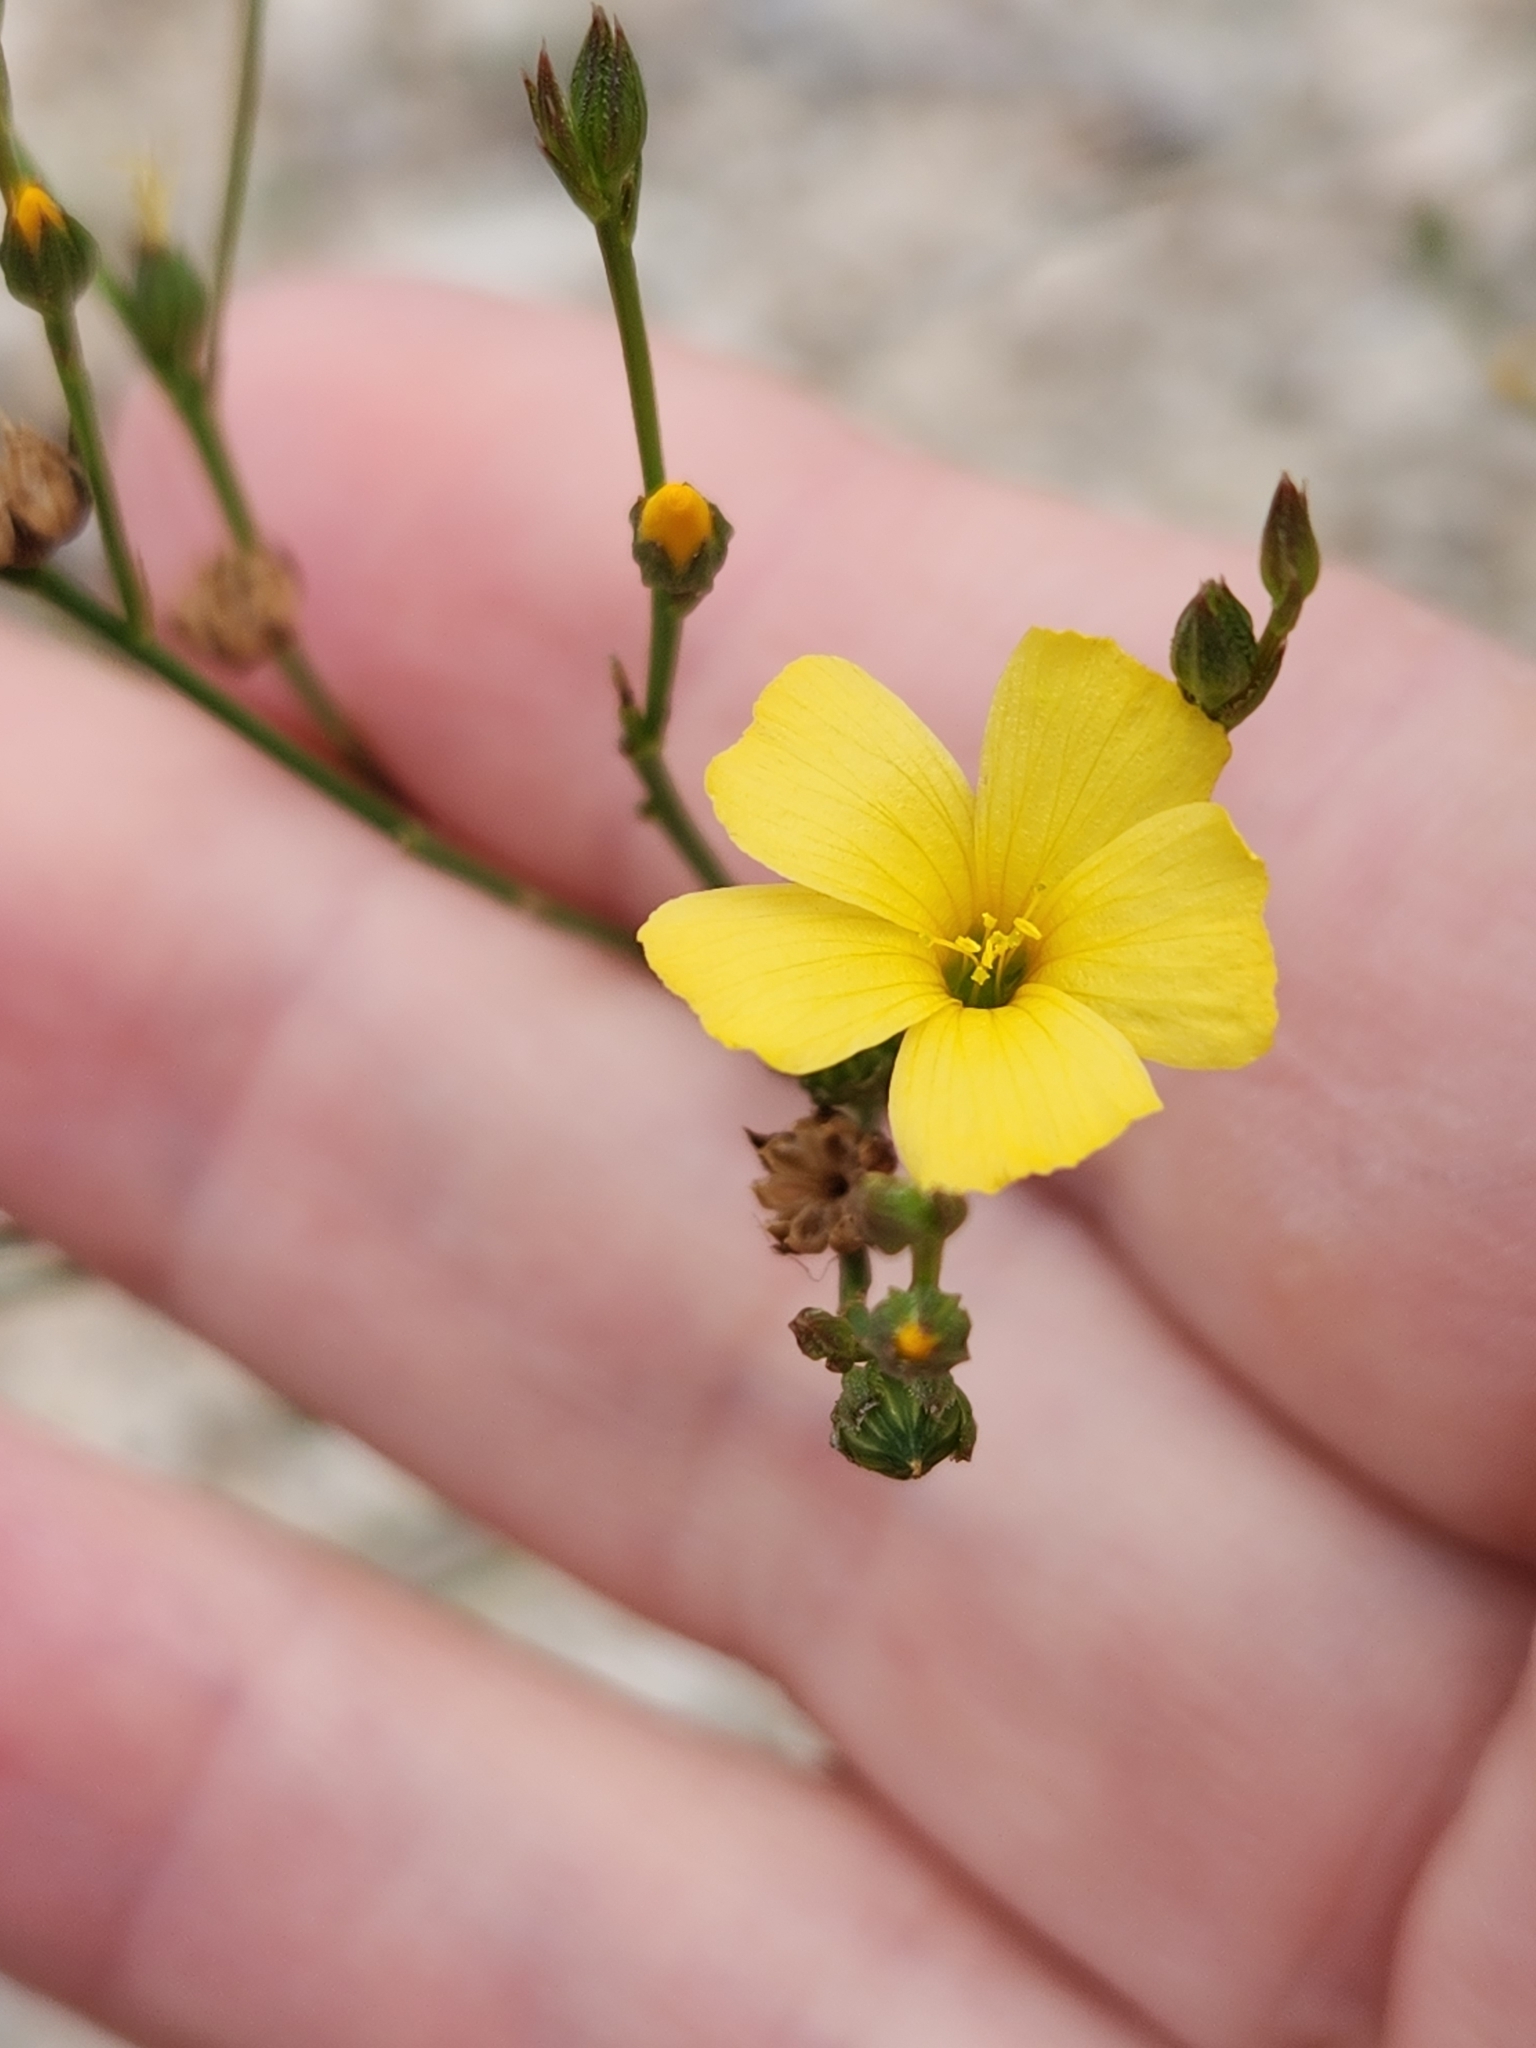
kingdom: Plantae
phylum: Tracheophyta
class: Magnoliopsida
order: Malpighiales
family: Linaceae
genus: Linum
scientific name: Linum rupestre
